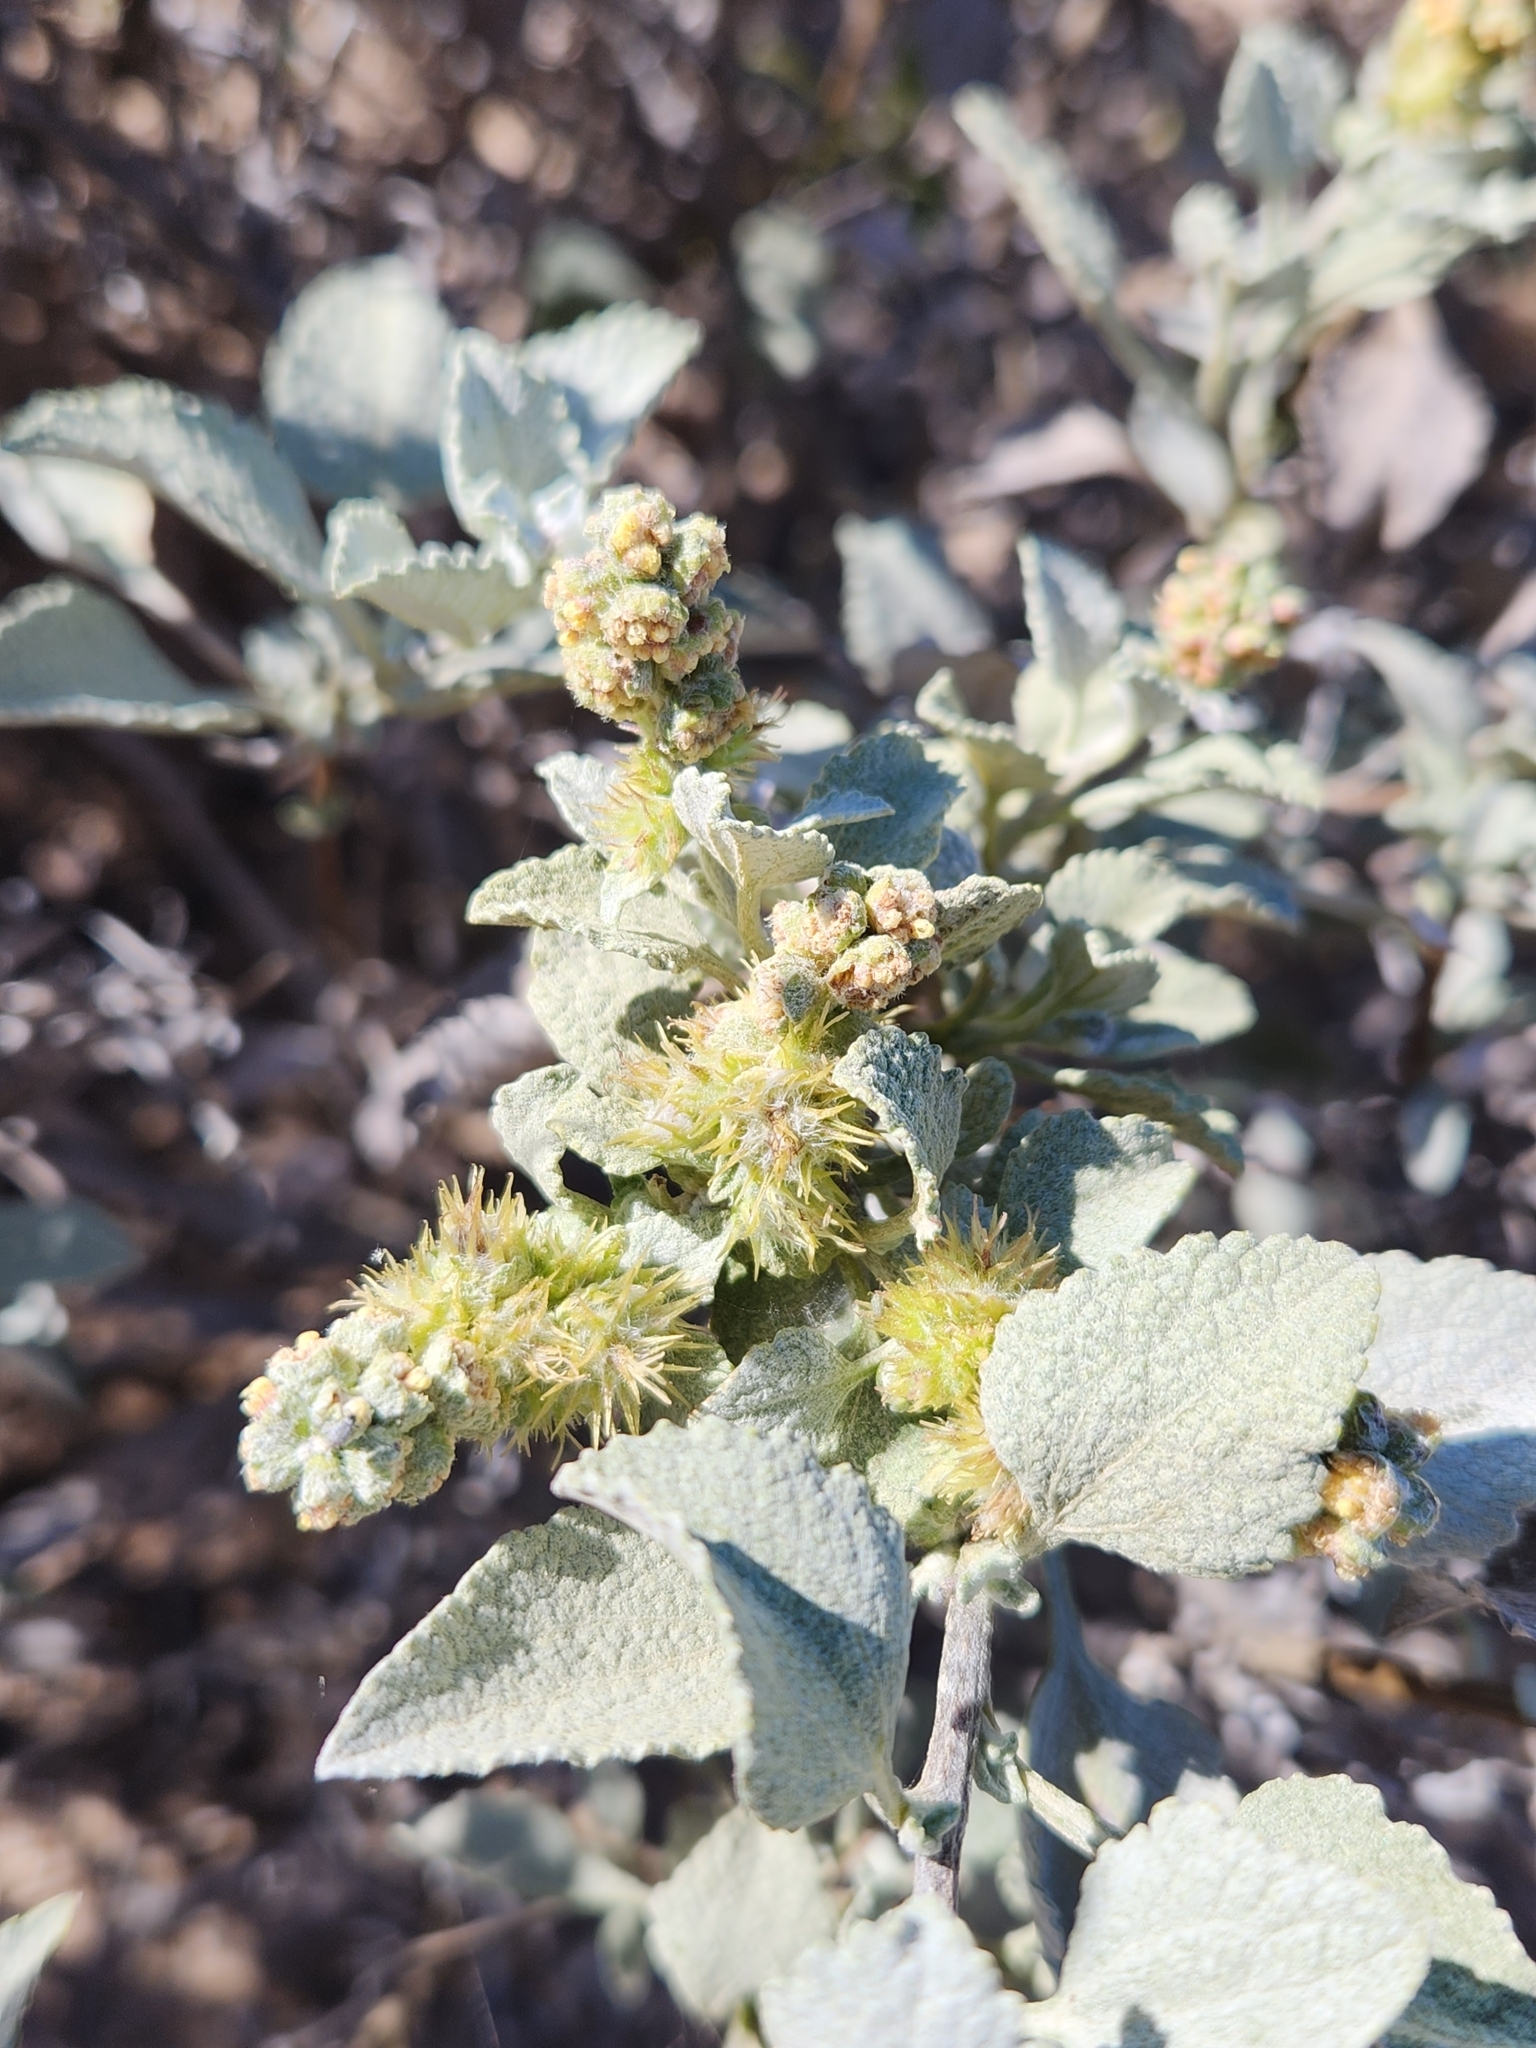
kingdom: Plantae
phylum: Tracheophyta
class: Magnoliopsida
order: Asterales
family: Asteraceae
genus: Ambrosia
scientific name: Ambrosia chenopodiifolia
